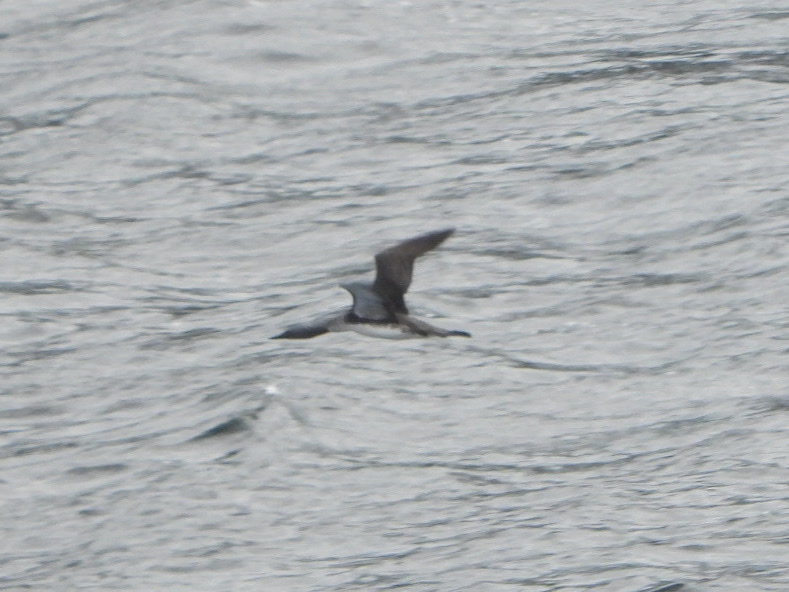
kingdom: Animalia
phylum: Chordata
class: Aves
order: Gaviiformes
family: Gaviidae
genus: Gavia
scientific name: Gavia stellata
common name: Red-throated loon
